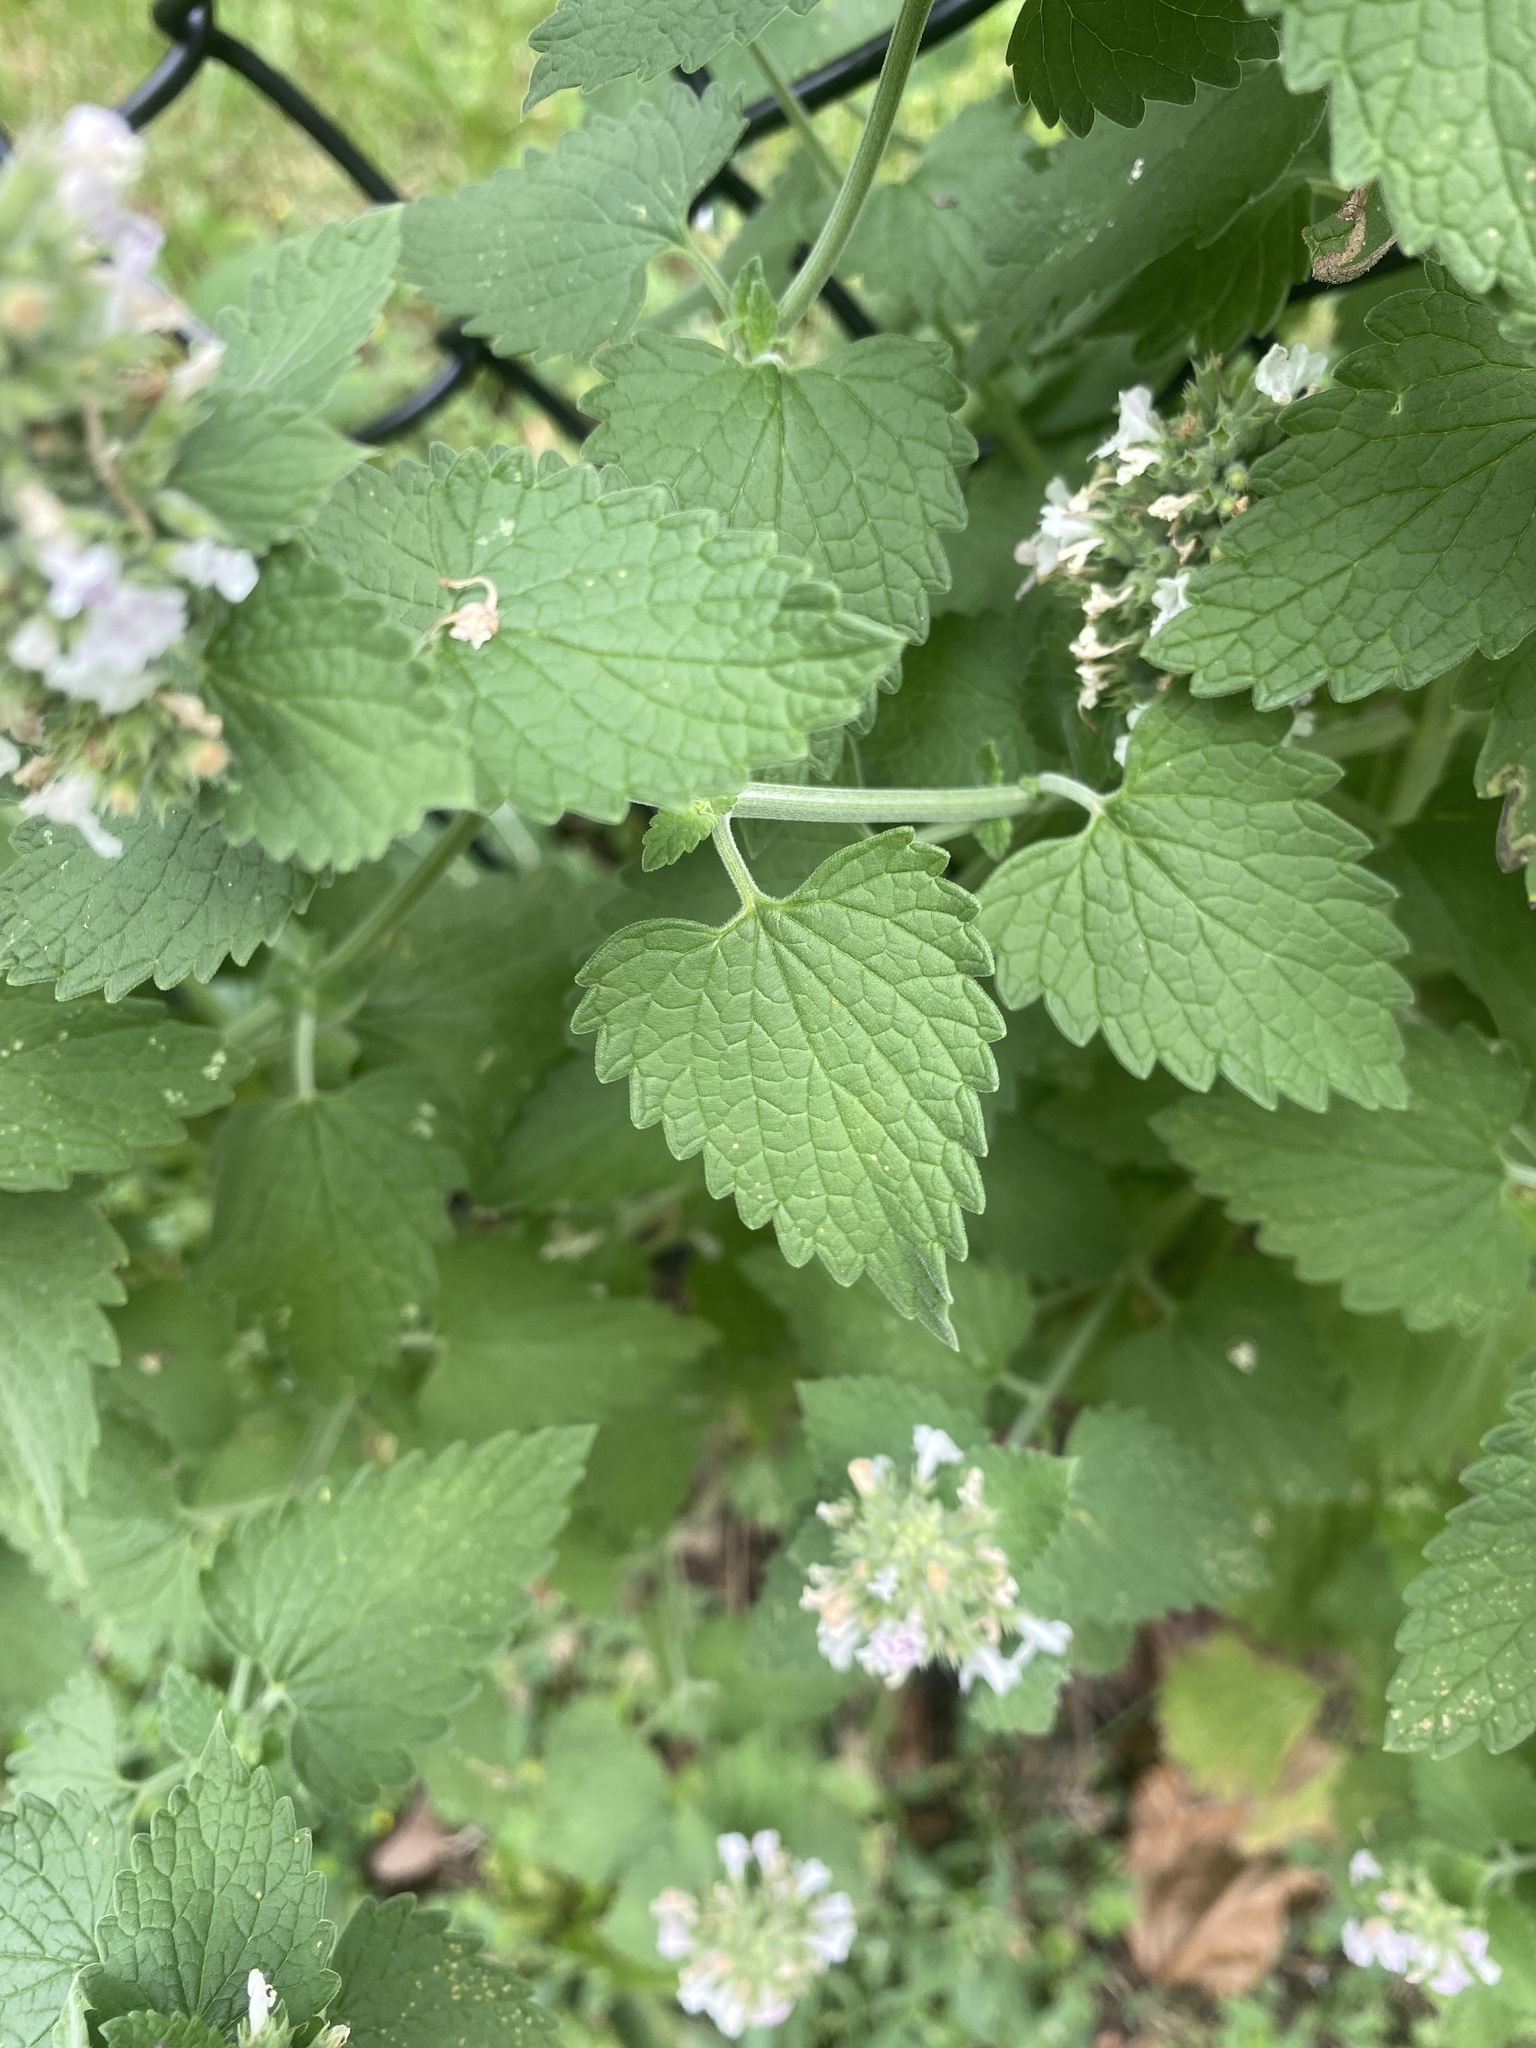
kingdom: Plantae
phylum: Tracheophyta
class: Magnoliopsida
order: Lamiales
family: Lamiaceae
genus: Nepeta
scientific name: Nepeta cataria
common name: Catnip
